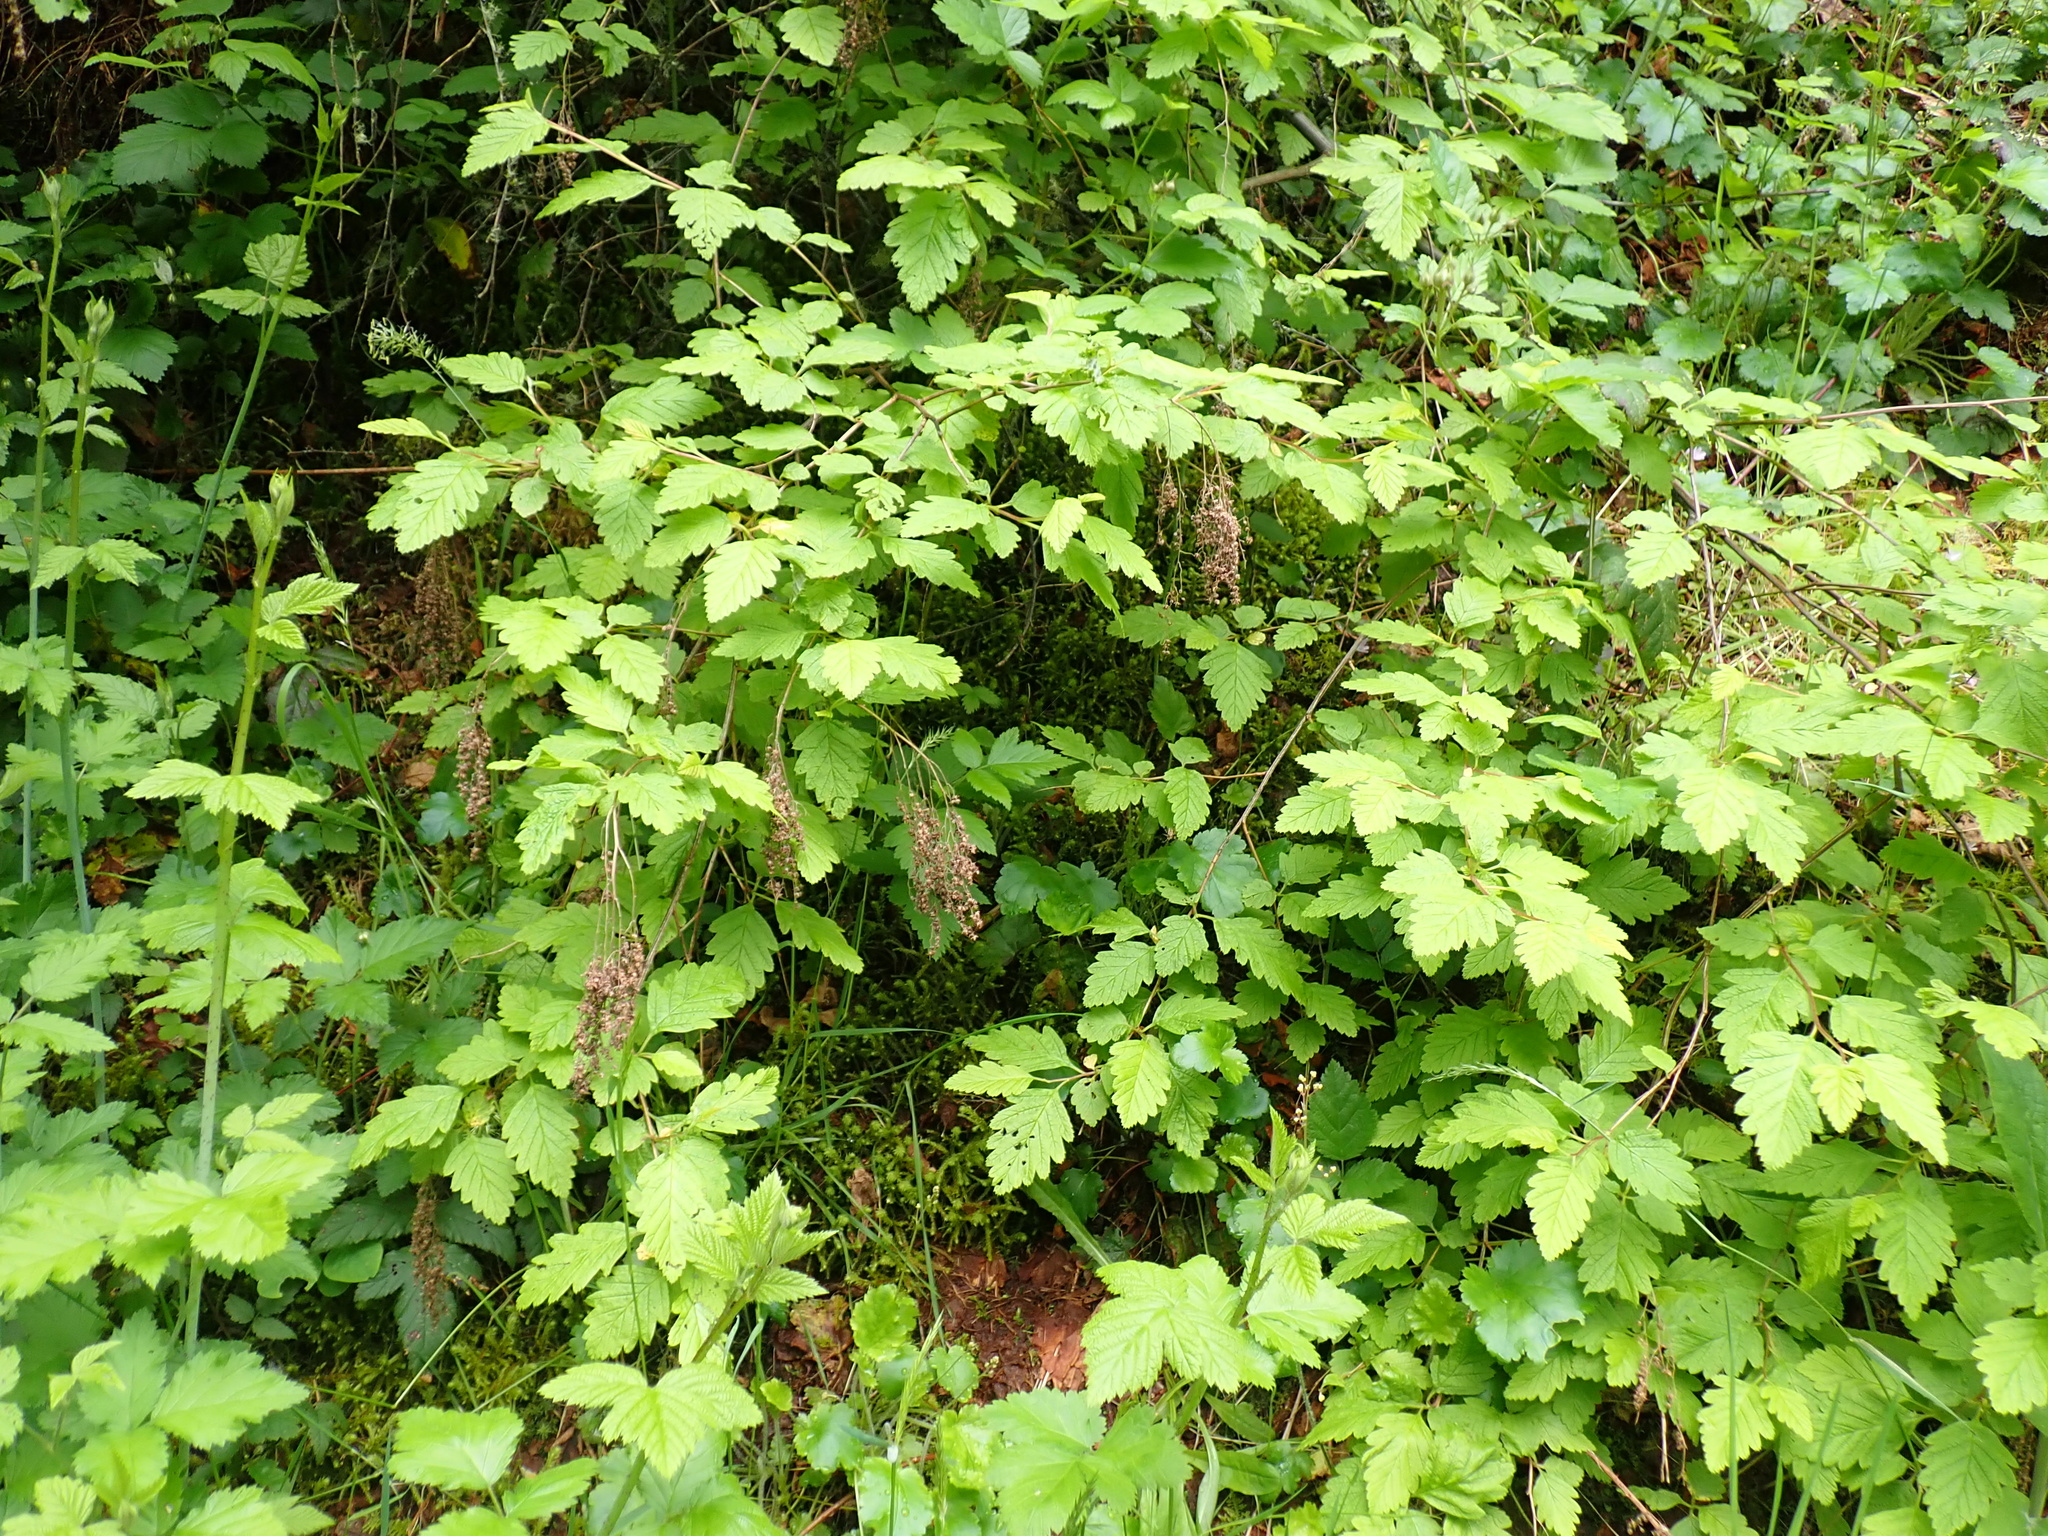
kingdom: Plantae
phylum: Tracheophyta
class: Magnoliopsida
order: Rosales
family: Rosaceae
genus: Holodiscus
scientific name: Holodiscus discolor
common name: Oceanspray
